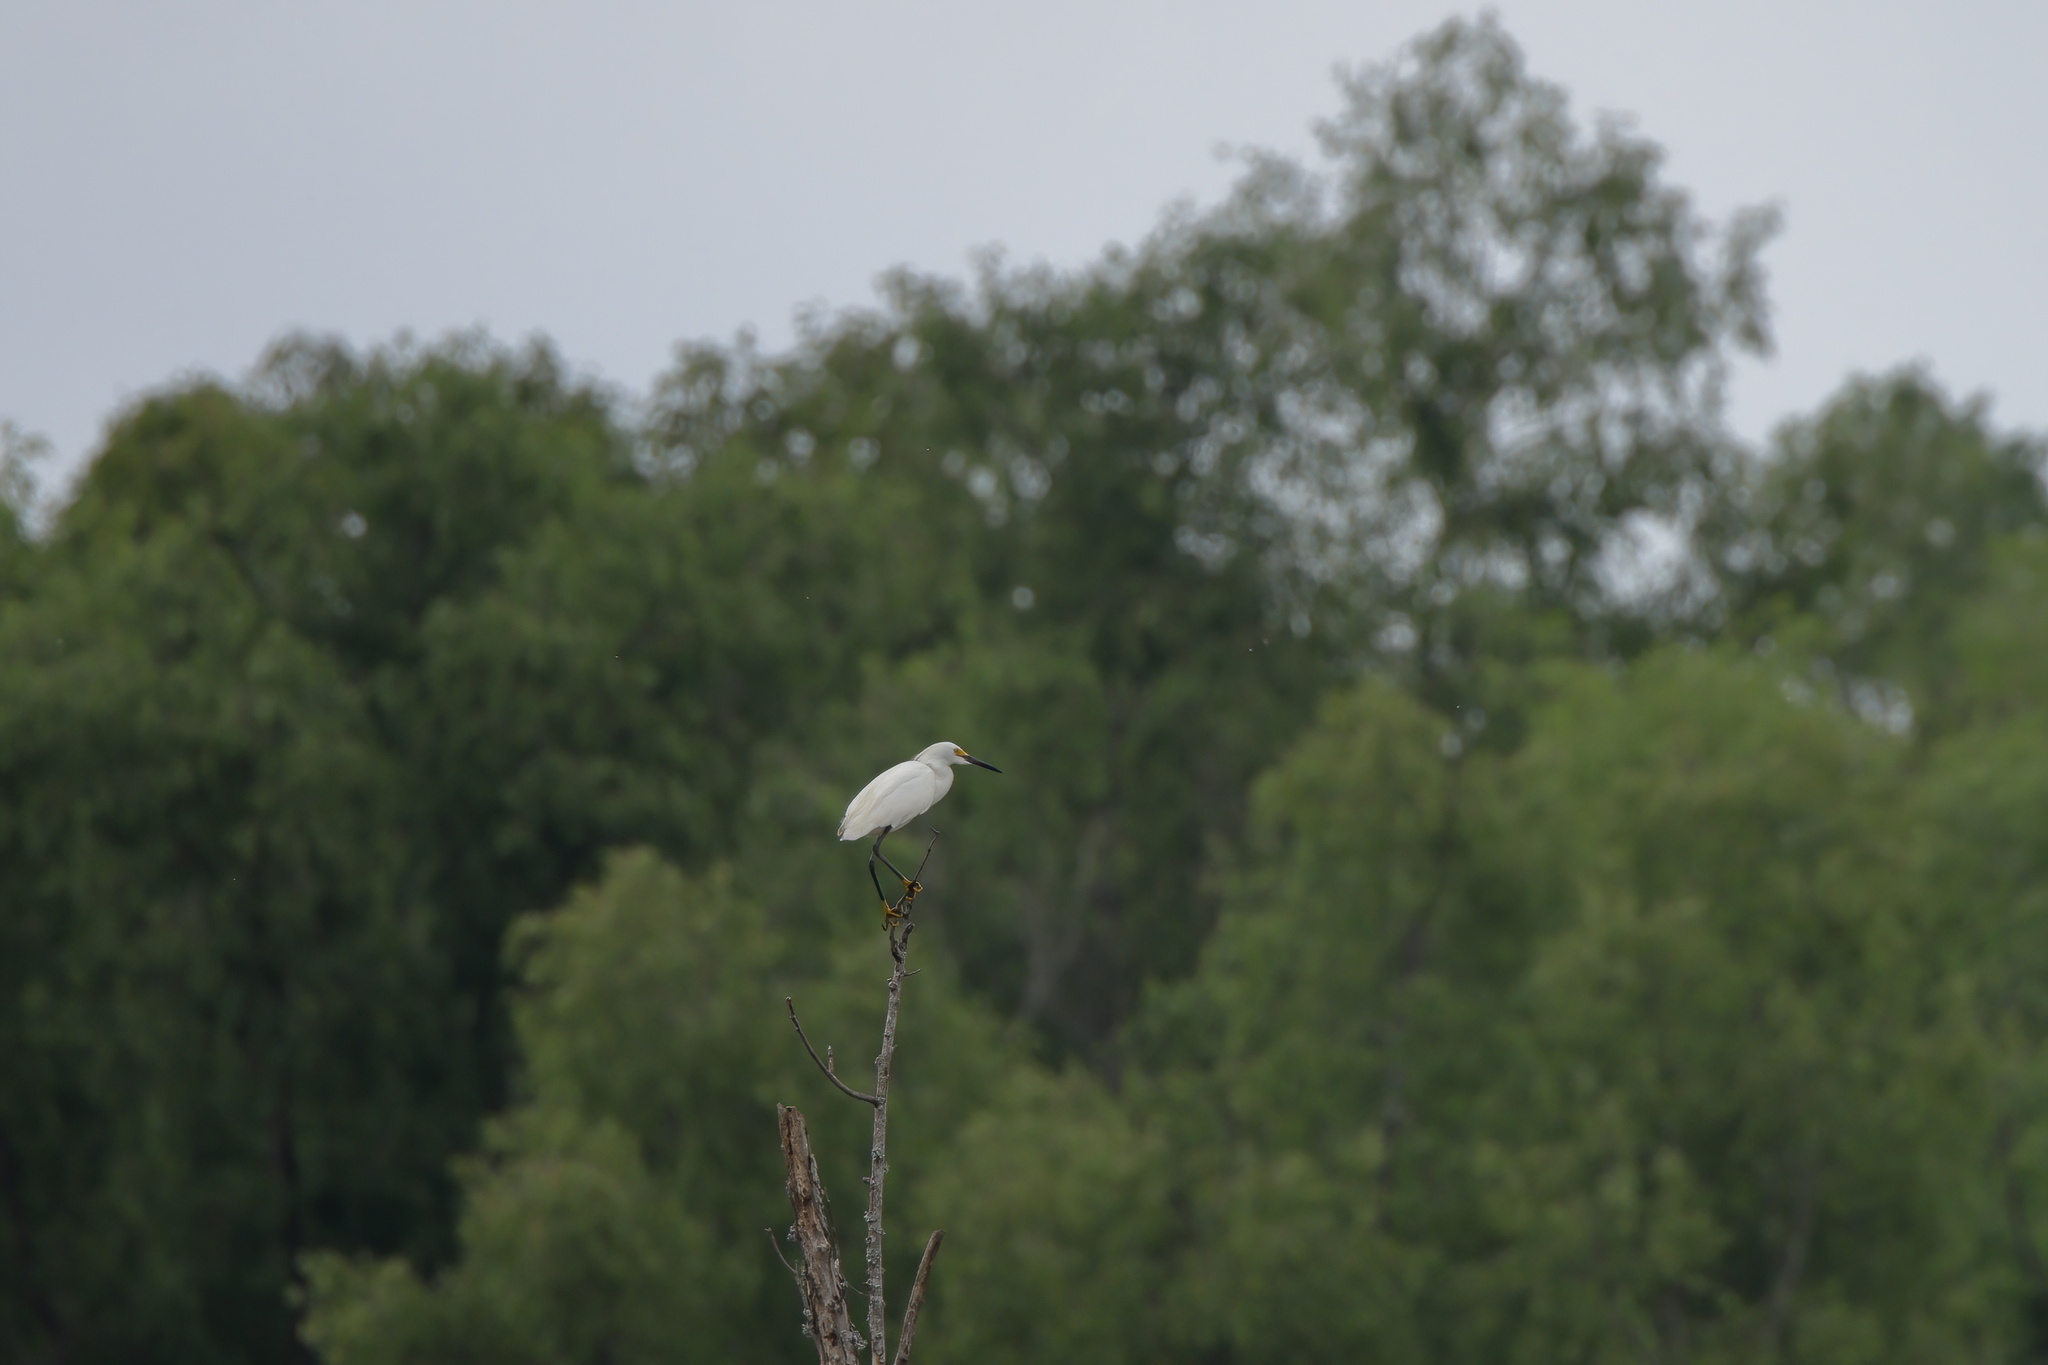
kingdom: Animalia
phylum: Chordata
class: Aves
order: Pelecaniformes
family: Ardeidae
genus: Egretta
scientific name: Egretta thula
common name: Snowy egret
